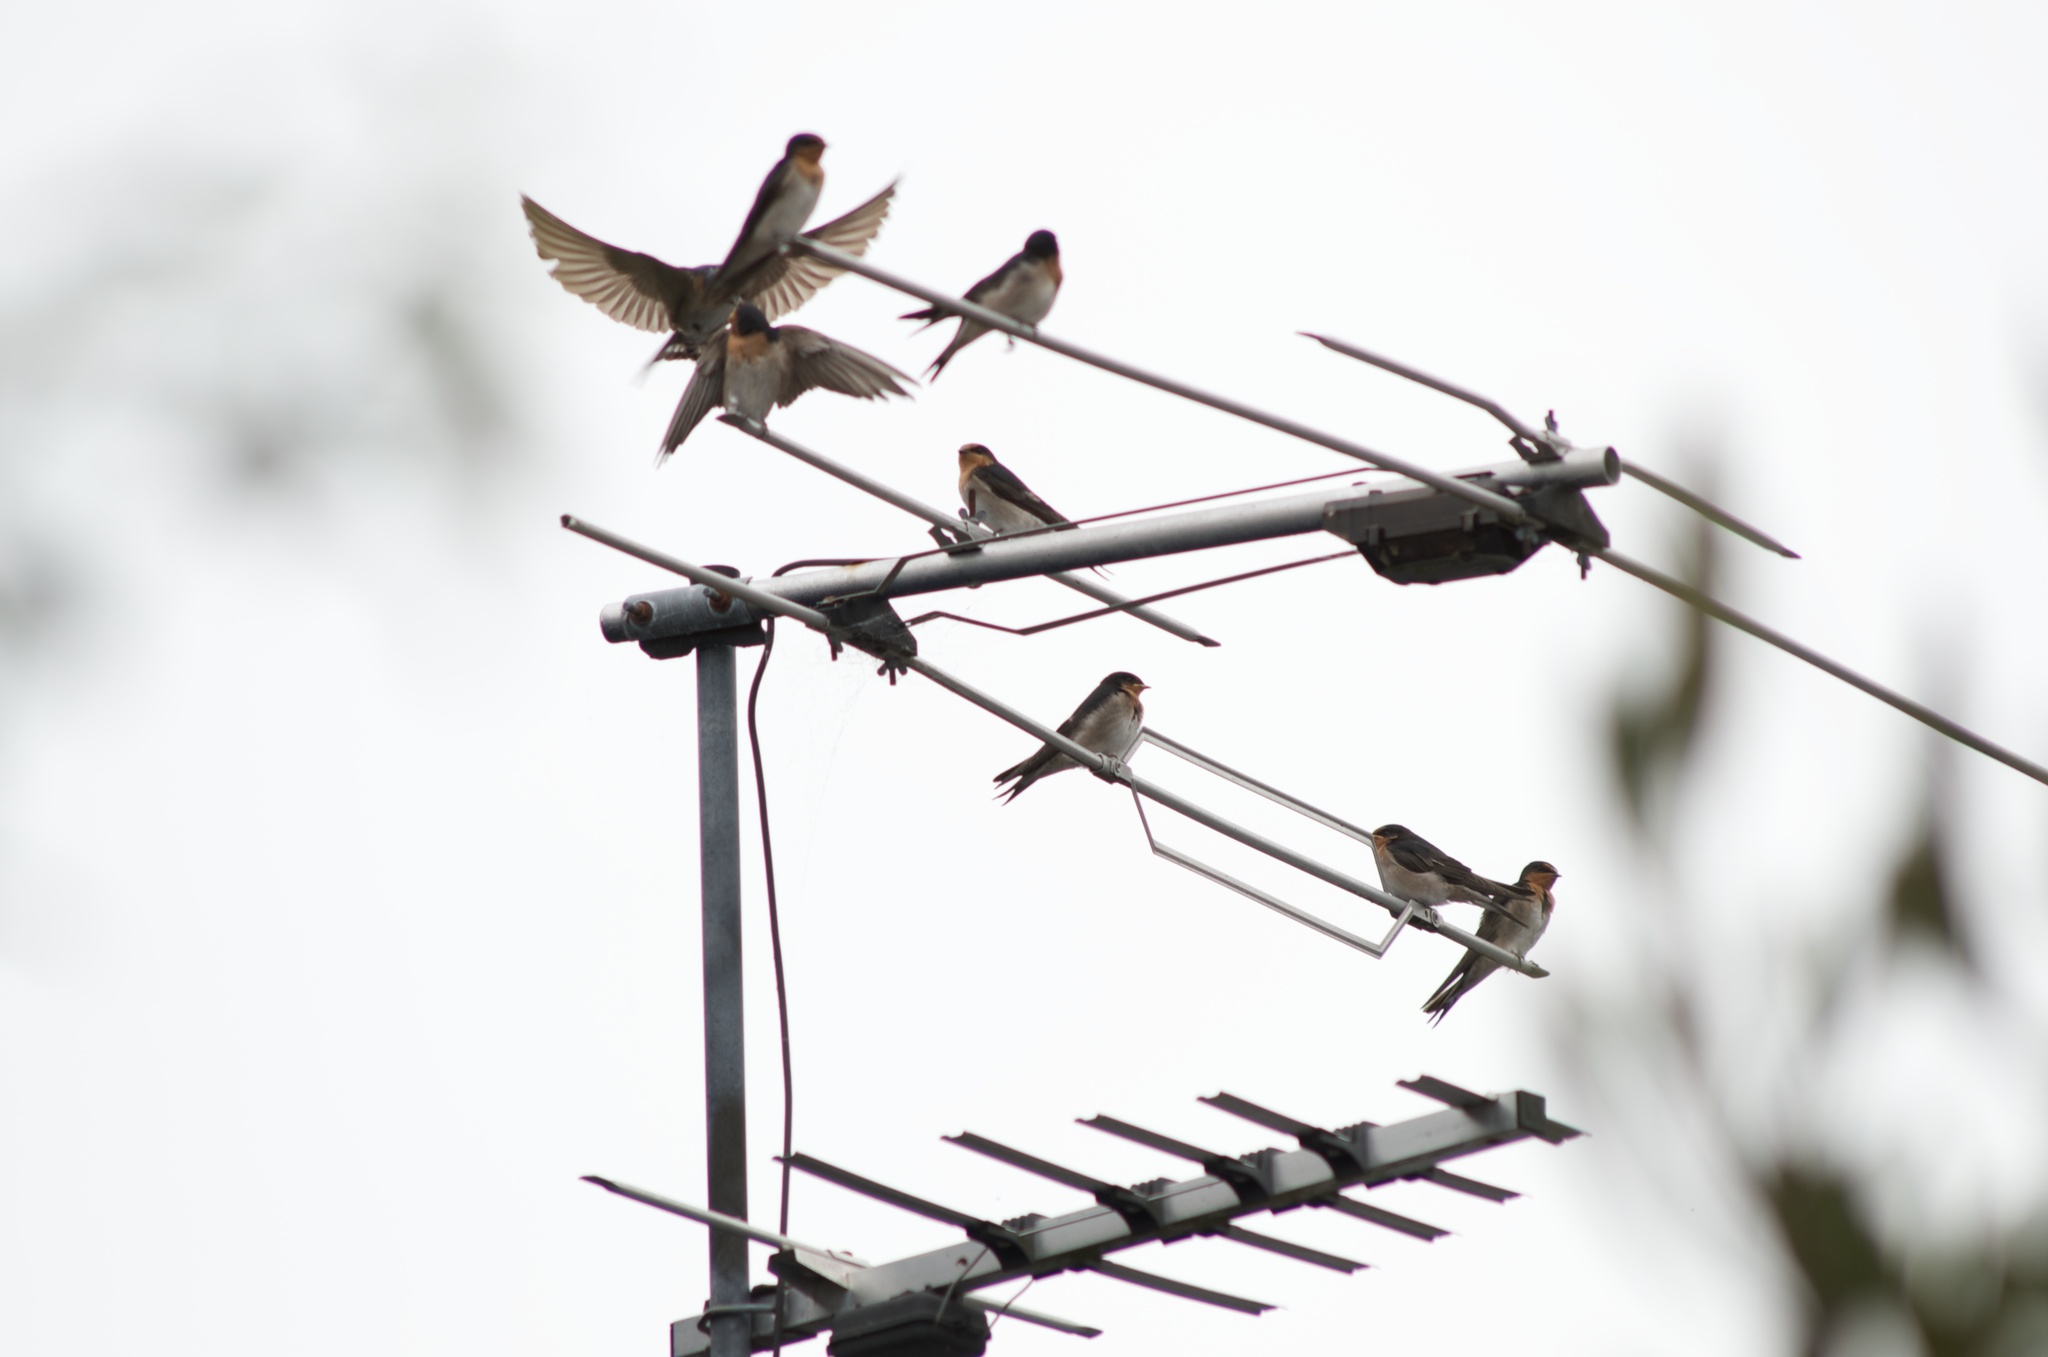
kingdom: Animalia
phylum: Chordata
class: Aves
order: Passeriformes
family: Hirundinidae
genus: Hirundo
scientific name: Hirundo neoxena
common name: Welcome swallow
